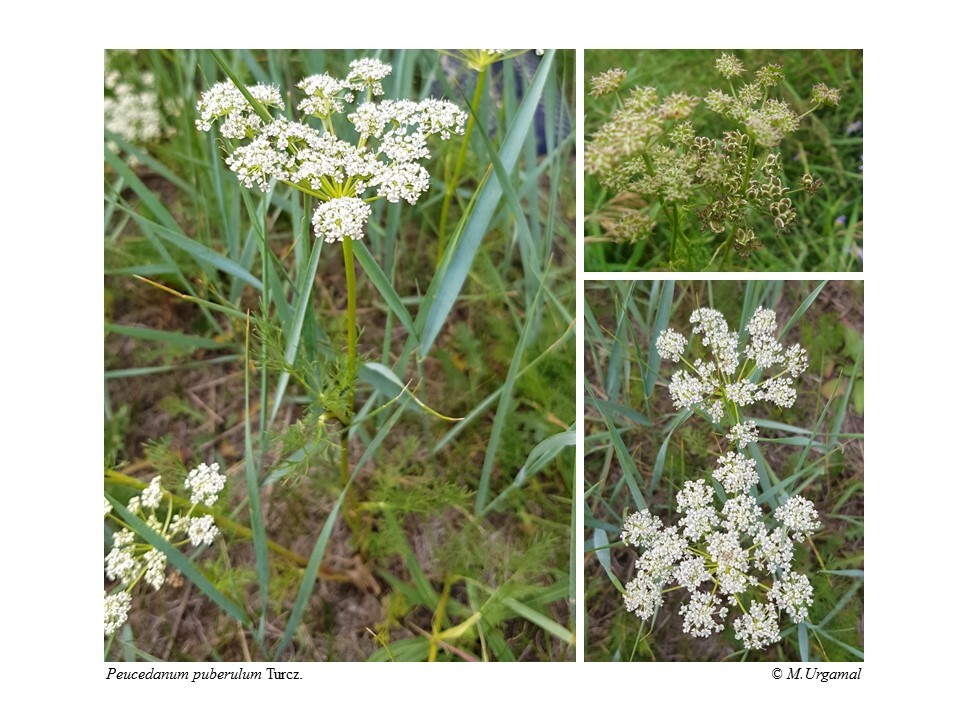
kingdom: Plantae
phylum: Tracheophyta
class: Magnoliopsida
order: Apiales
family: Apiaceae
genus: Peucedanum
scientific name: Peucedanum puberulum
